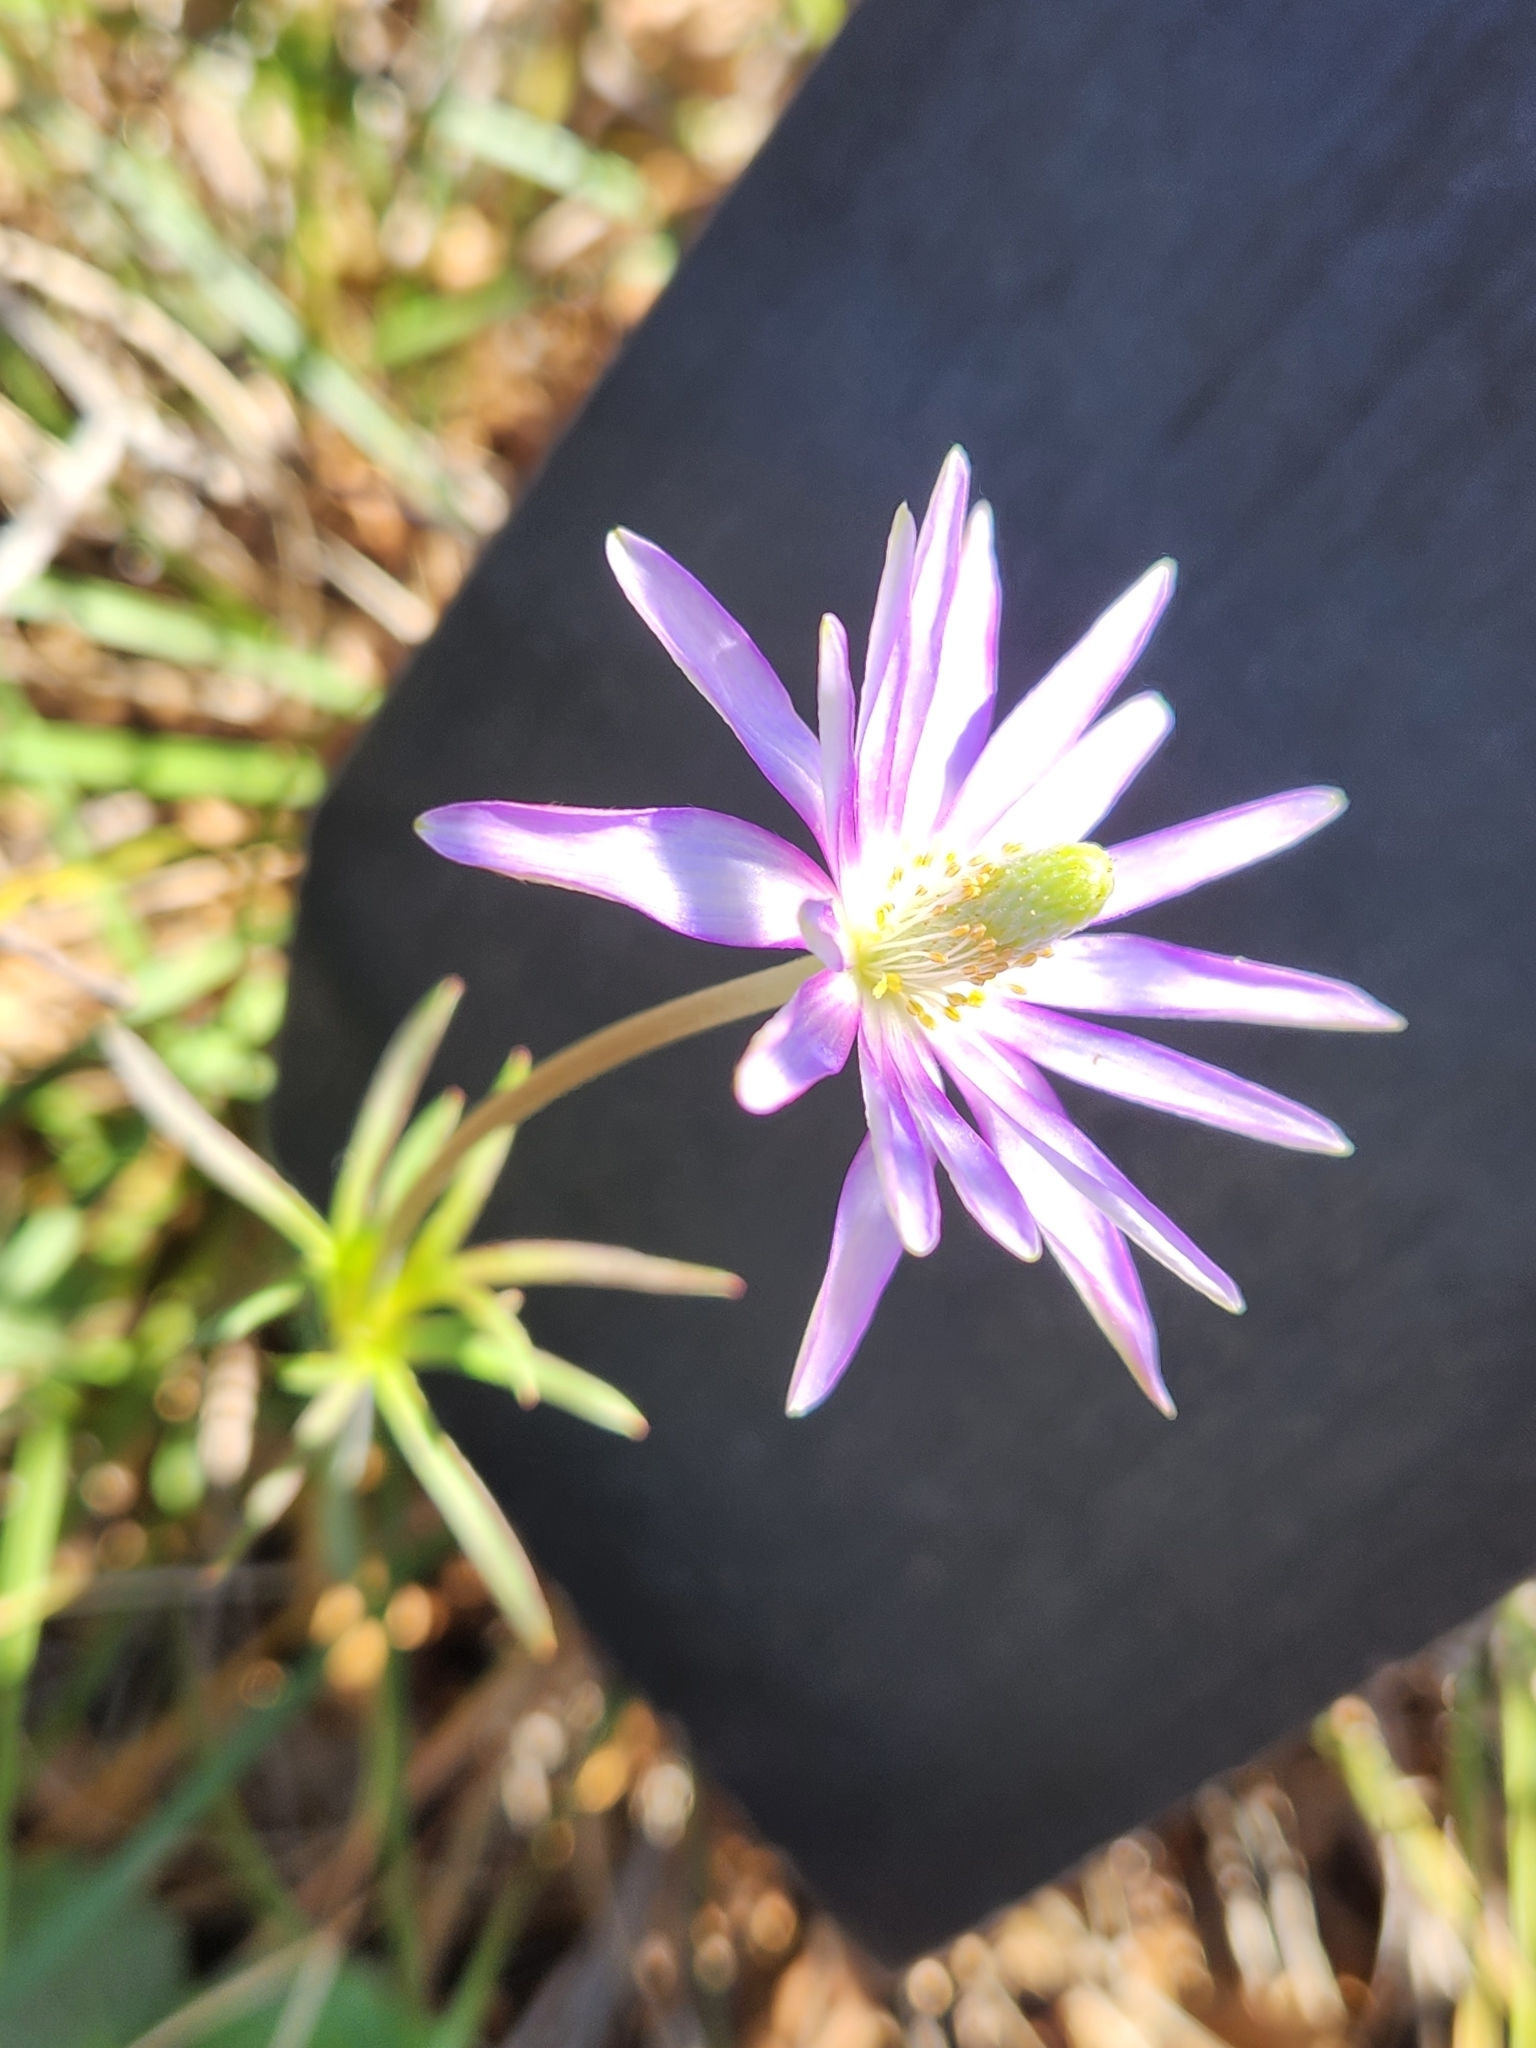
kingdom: Plantae
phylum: Tracheophyta
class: Magnoliopsida
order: Ranunculales
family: Ranunculaceae
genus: Anemone
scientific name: Anemone berlandieri
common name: Ten-petal anemone
